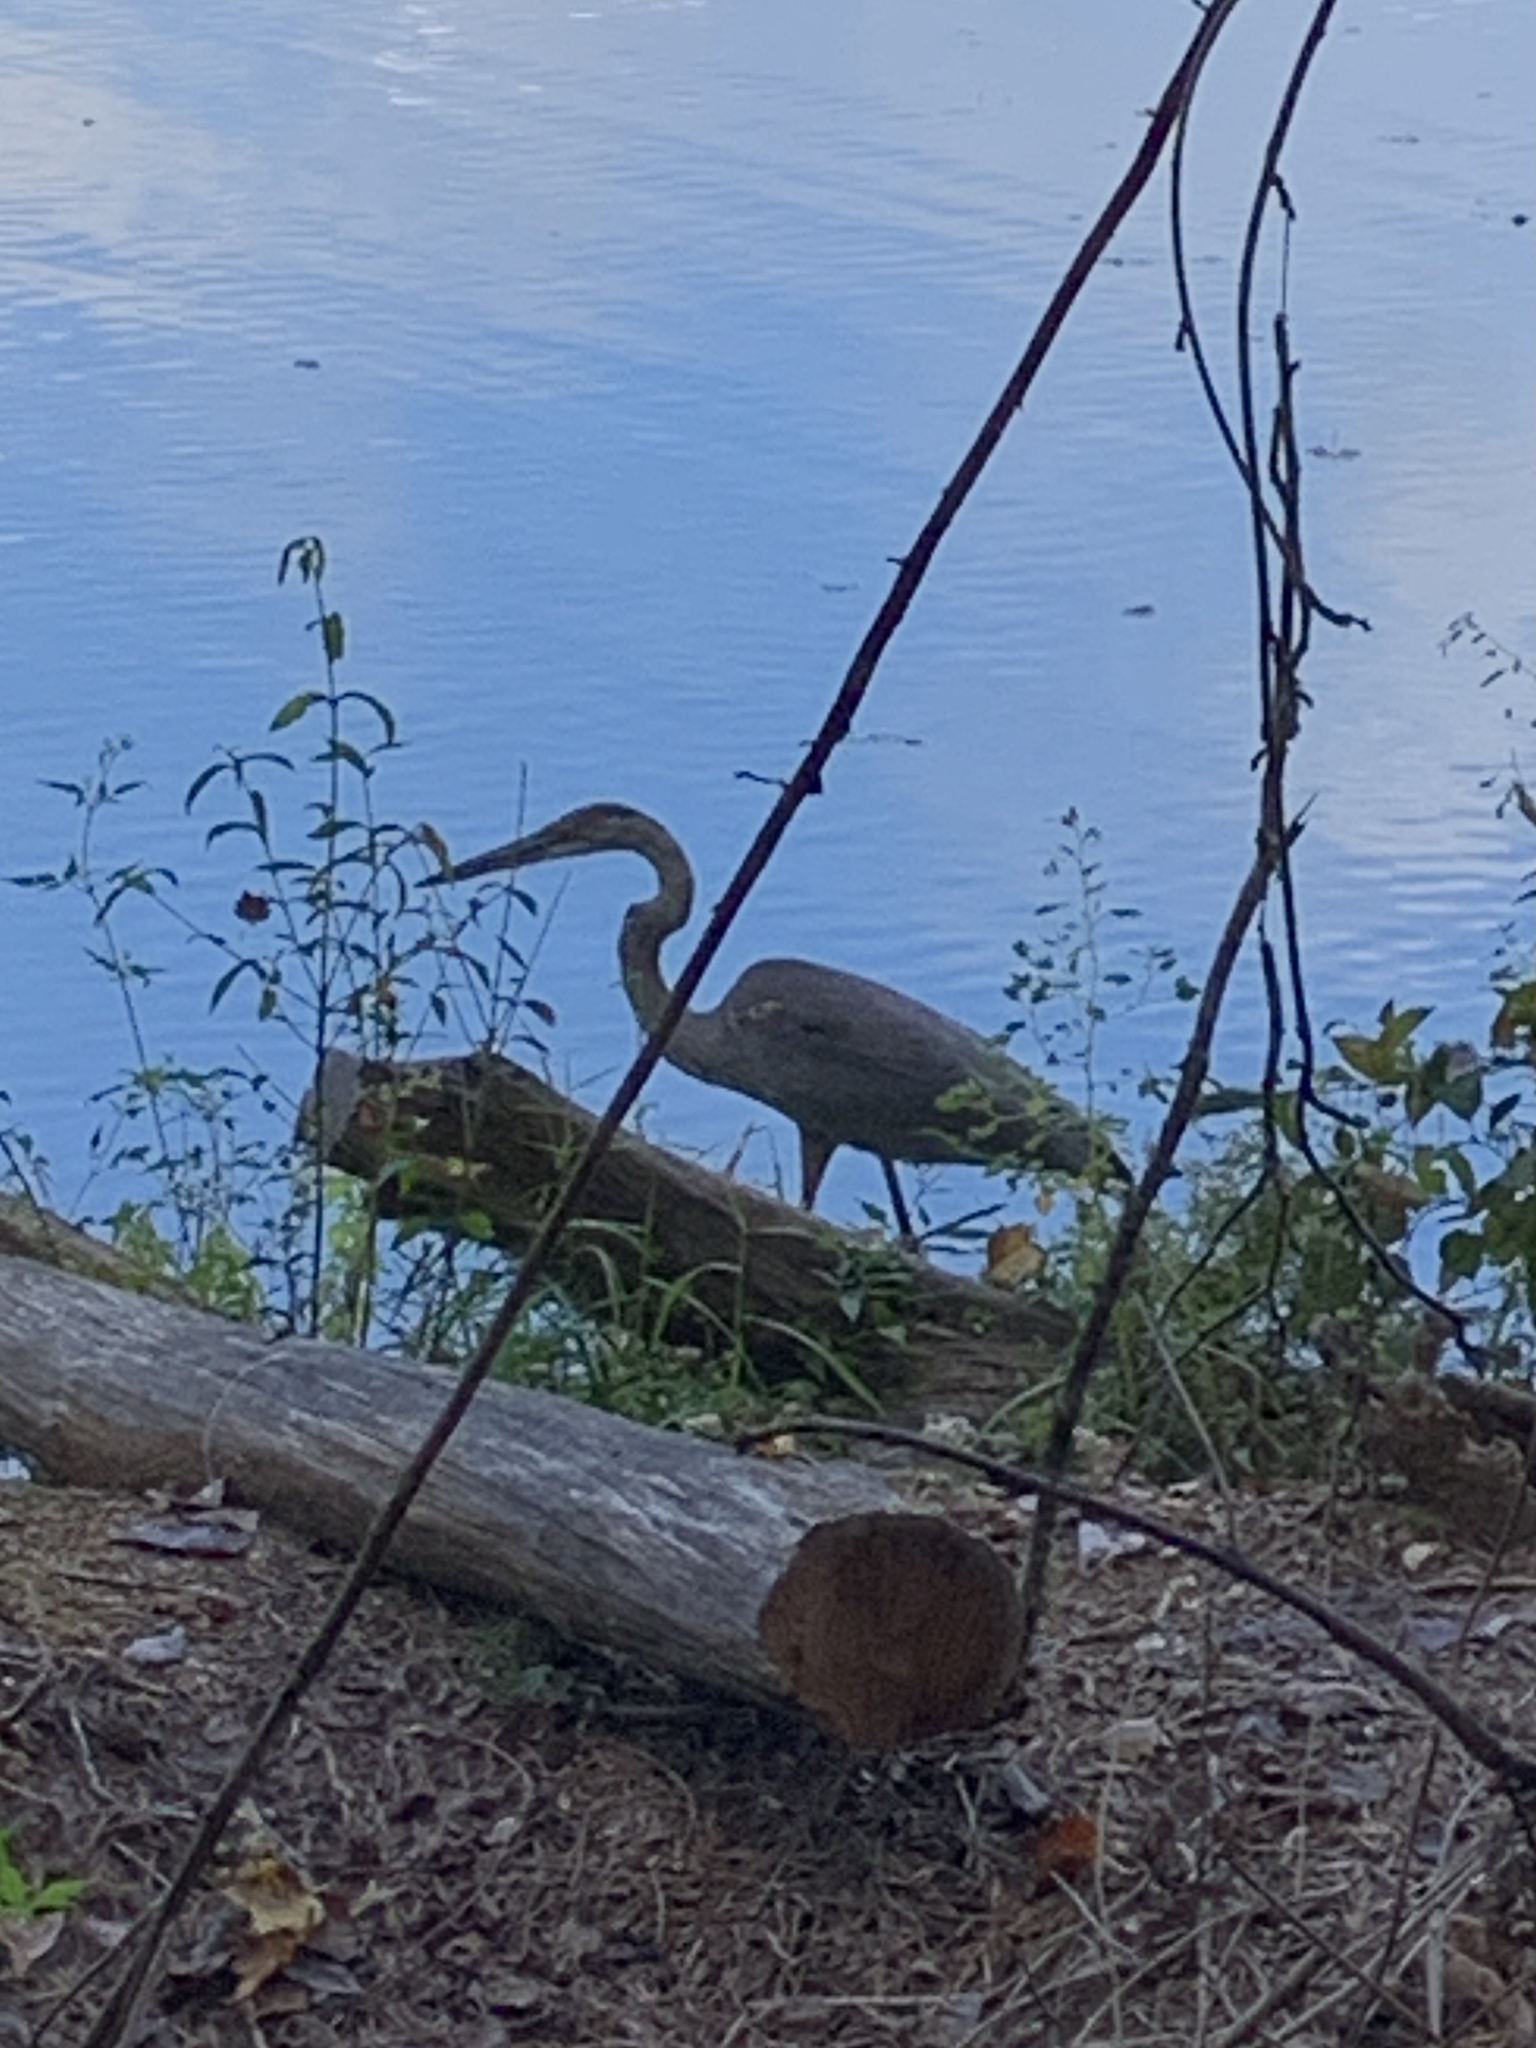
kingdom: Animalia
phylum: Chordata
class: Aves
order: Pelecaniformes
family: Ardeidae
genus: Ardea
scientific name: Ardea herodias
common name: Great blue heron
